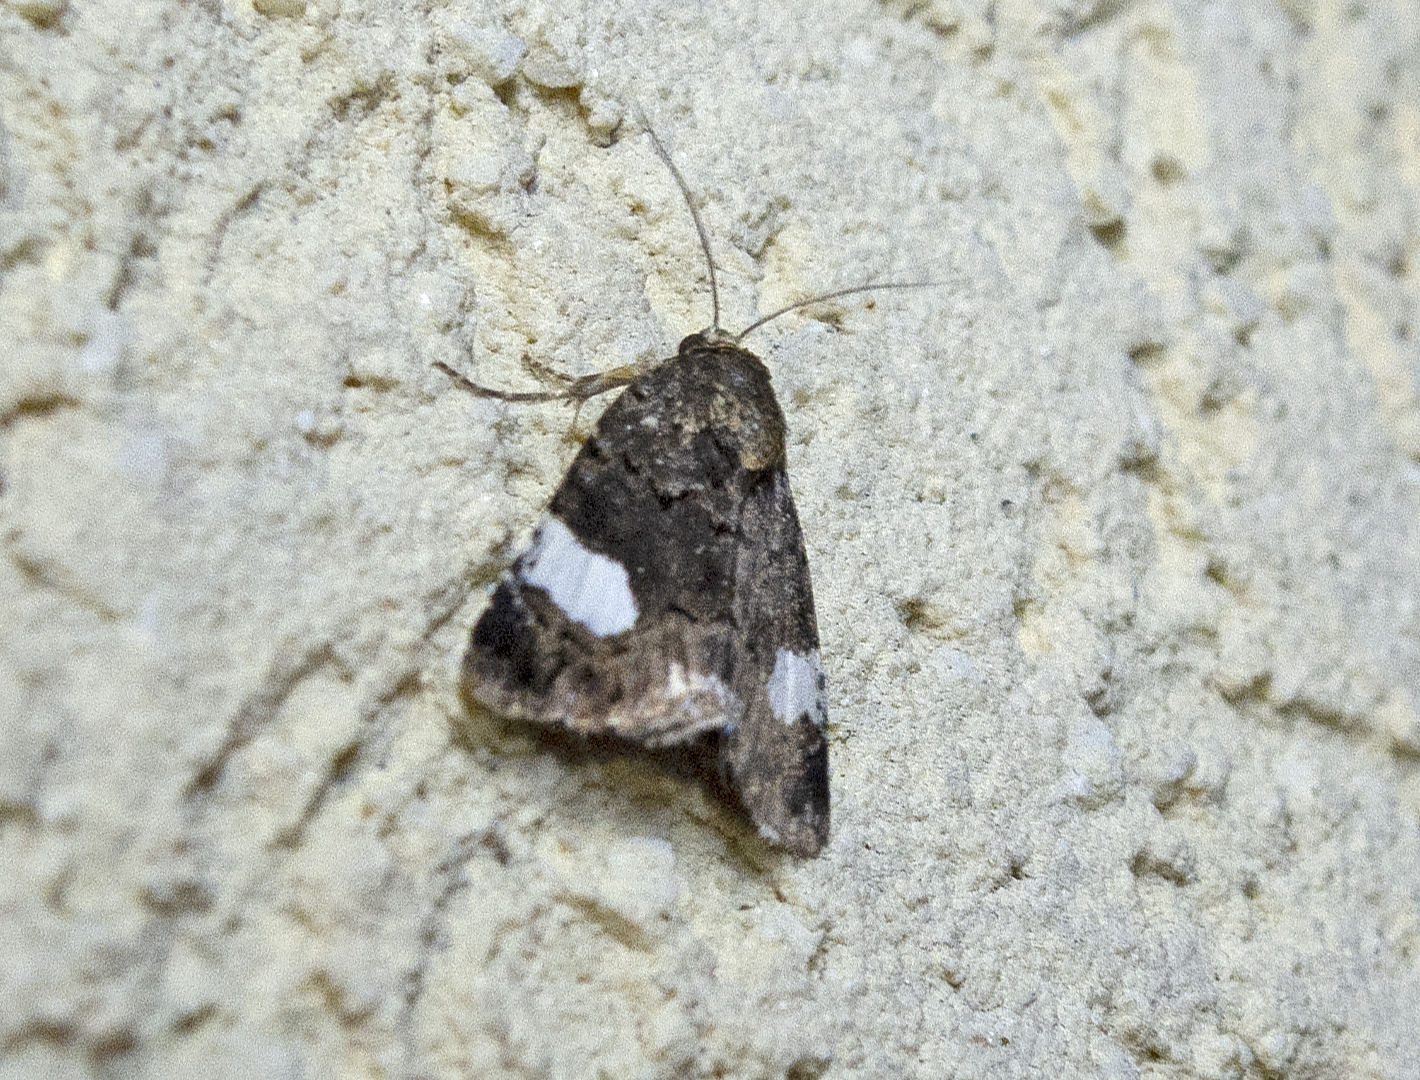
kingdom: Animalia
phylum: Arthropoda
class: Insecta
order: Lepidoptera
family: Erebidae
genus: Tyta
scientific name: Tyta luctuosa
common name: Four-spotted
